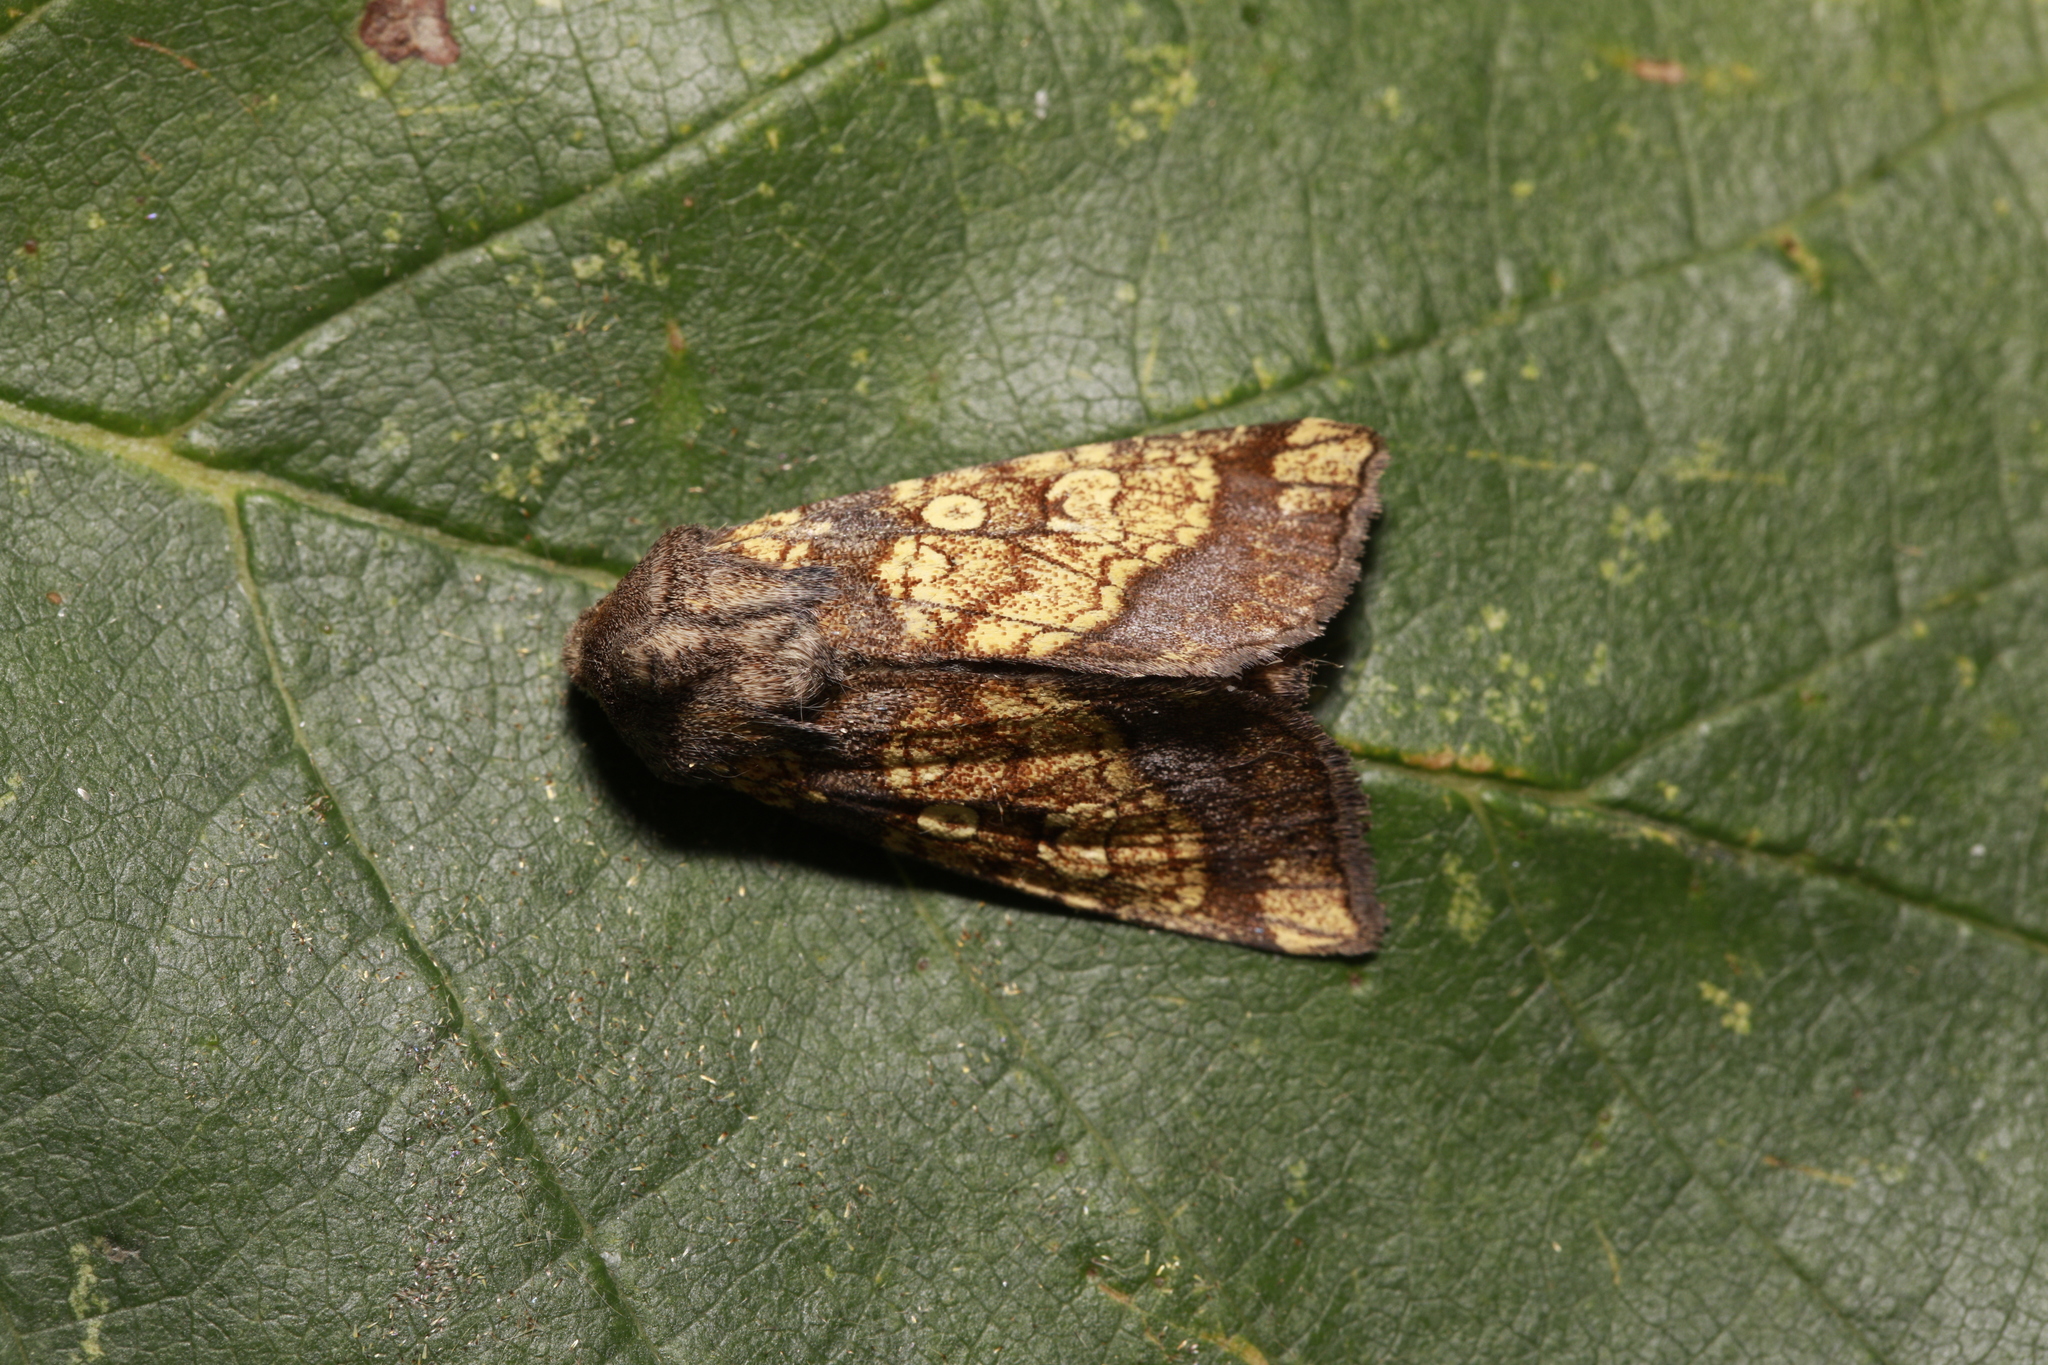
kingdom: Animalia
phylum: Arthropoda
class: Insecta
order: Lepidoptera
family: Noctuidae
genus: Gortyna
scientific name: Gortyna flavago
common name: Frosted orange
